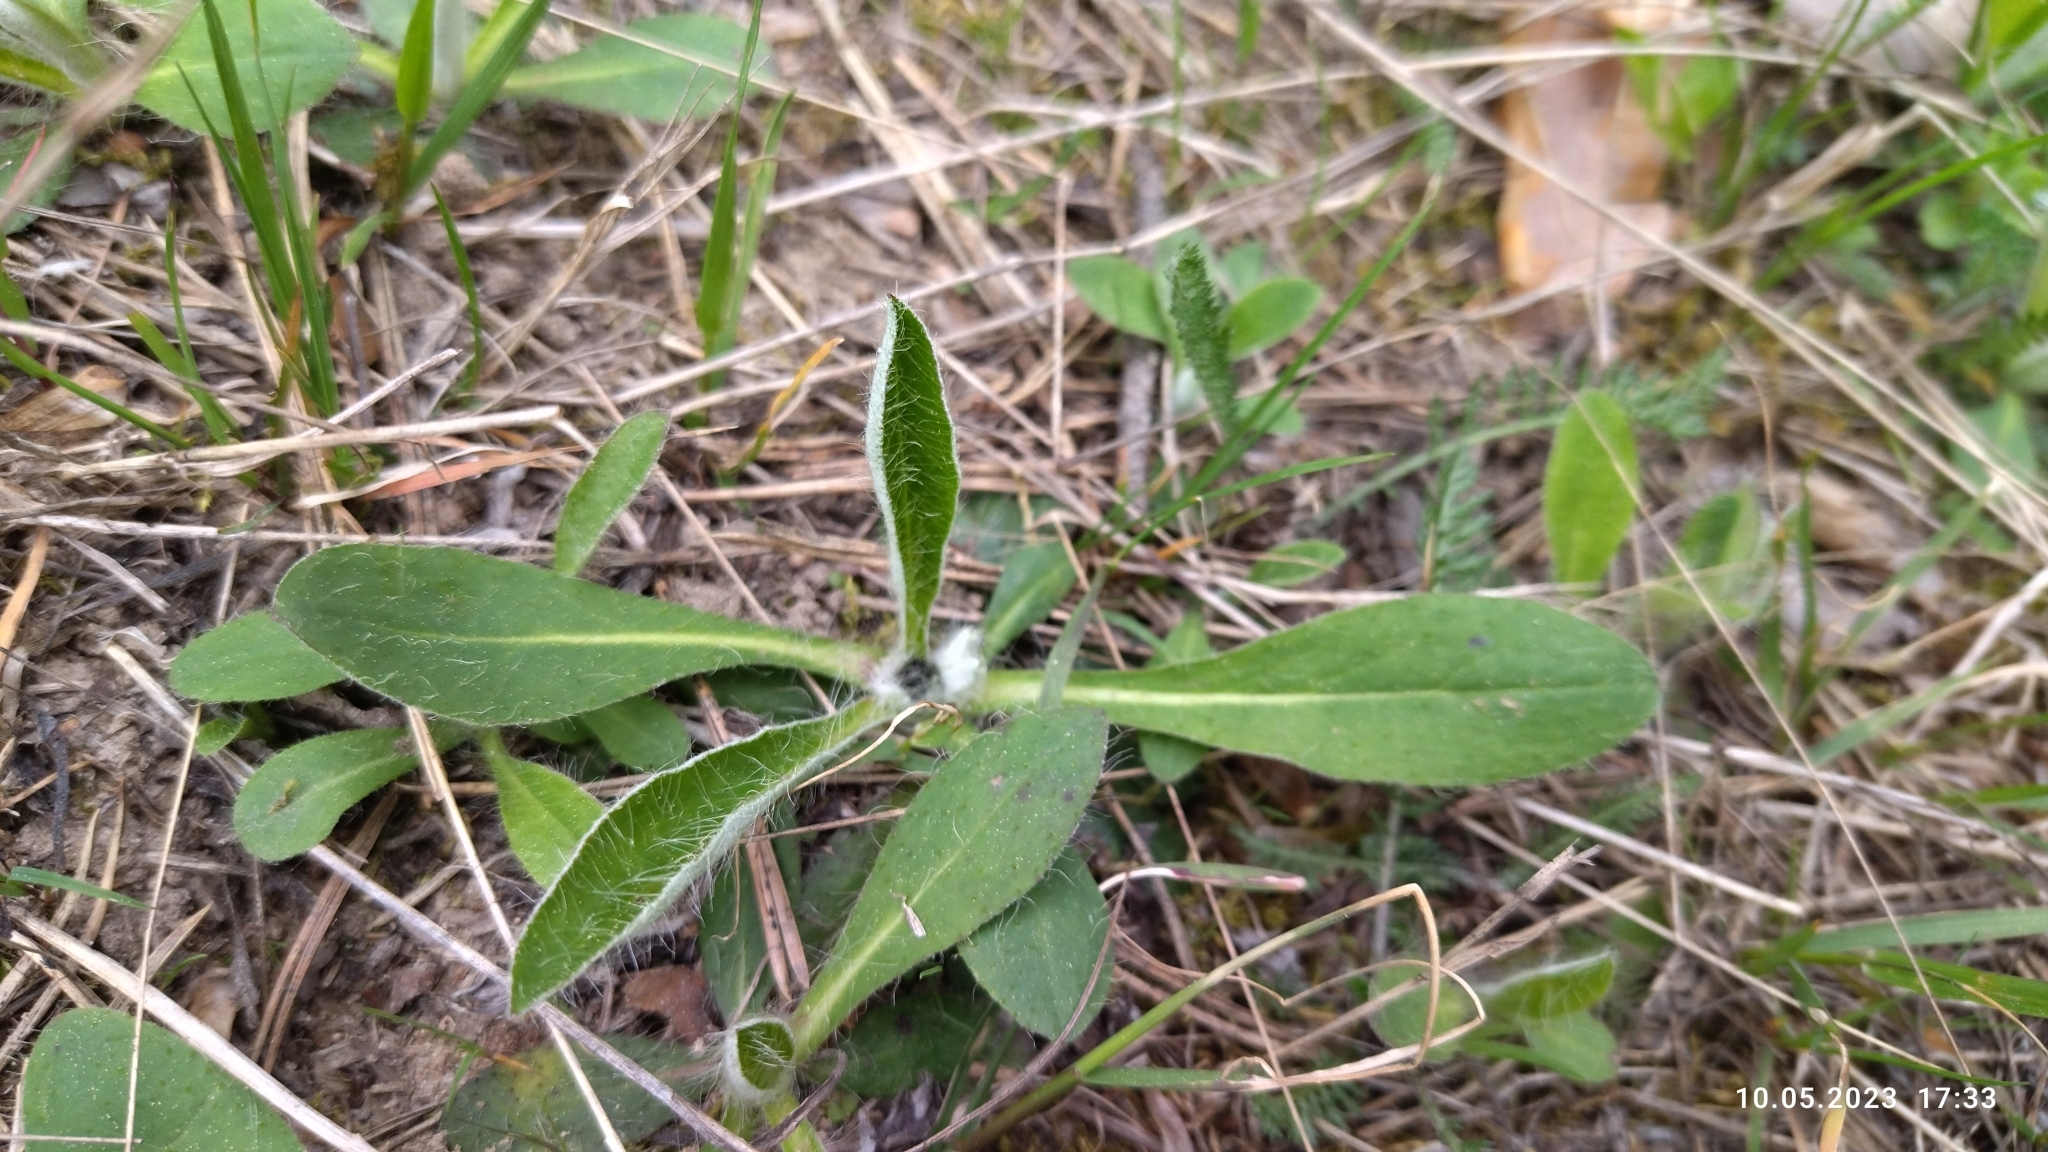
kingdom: Plantae
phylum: Tracheophyta
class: Magnoliopsida
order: Asterales
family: Asteraceae
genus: Pilosella
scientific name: Pilosella officinarum
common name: Mouse-ear hawkweed
